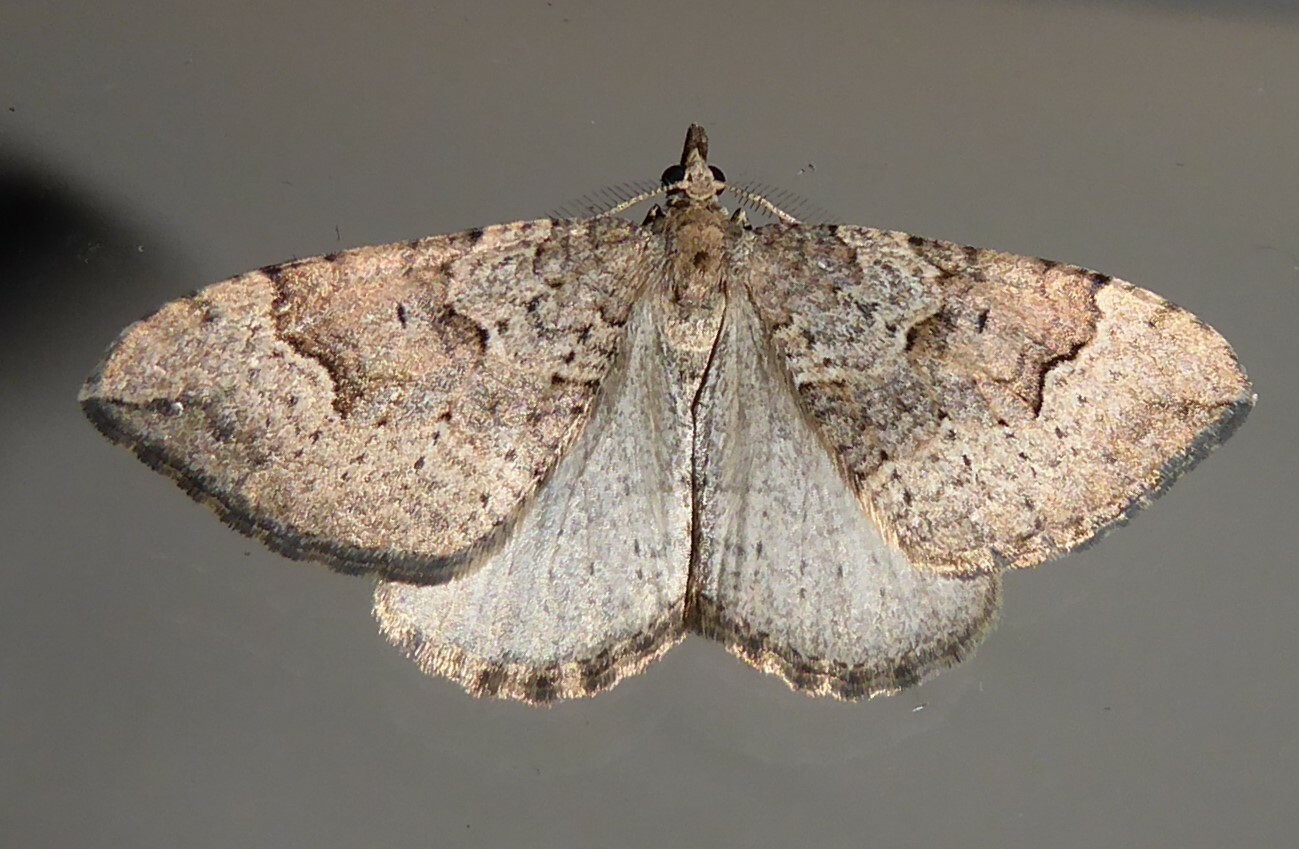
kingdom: Animalia
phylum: Arthropoda
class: Insecta
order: Lepidoptera
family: Geometridae
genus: Epyaxa
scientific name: Epyaxa rosearia
